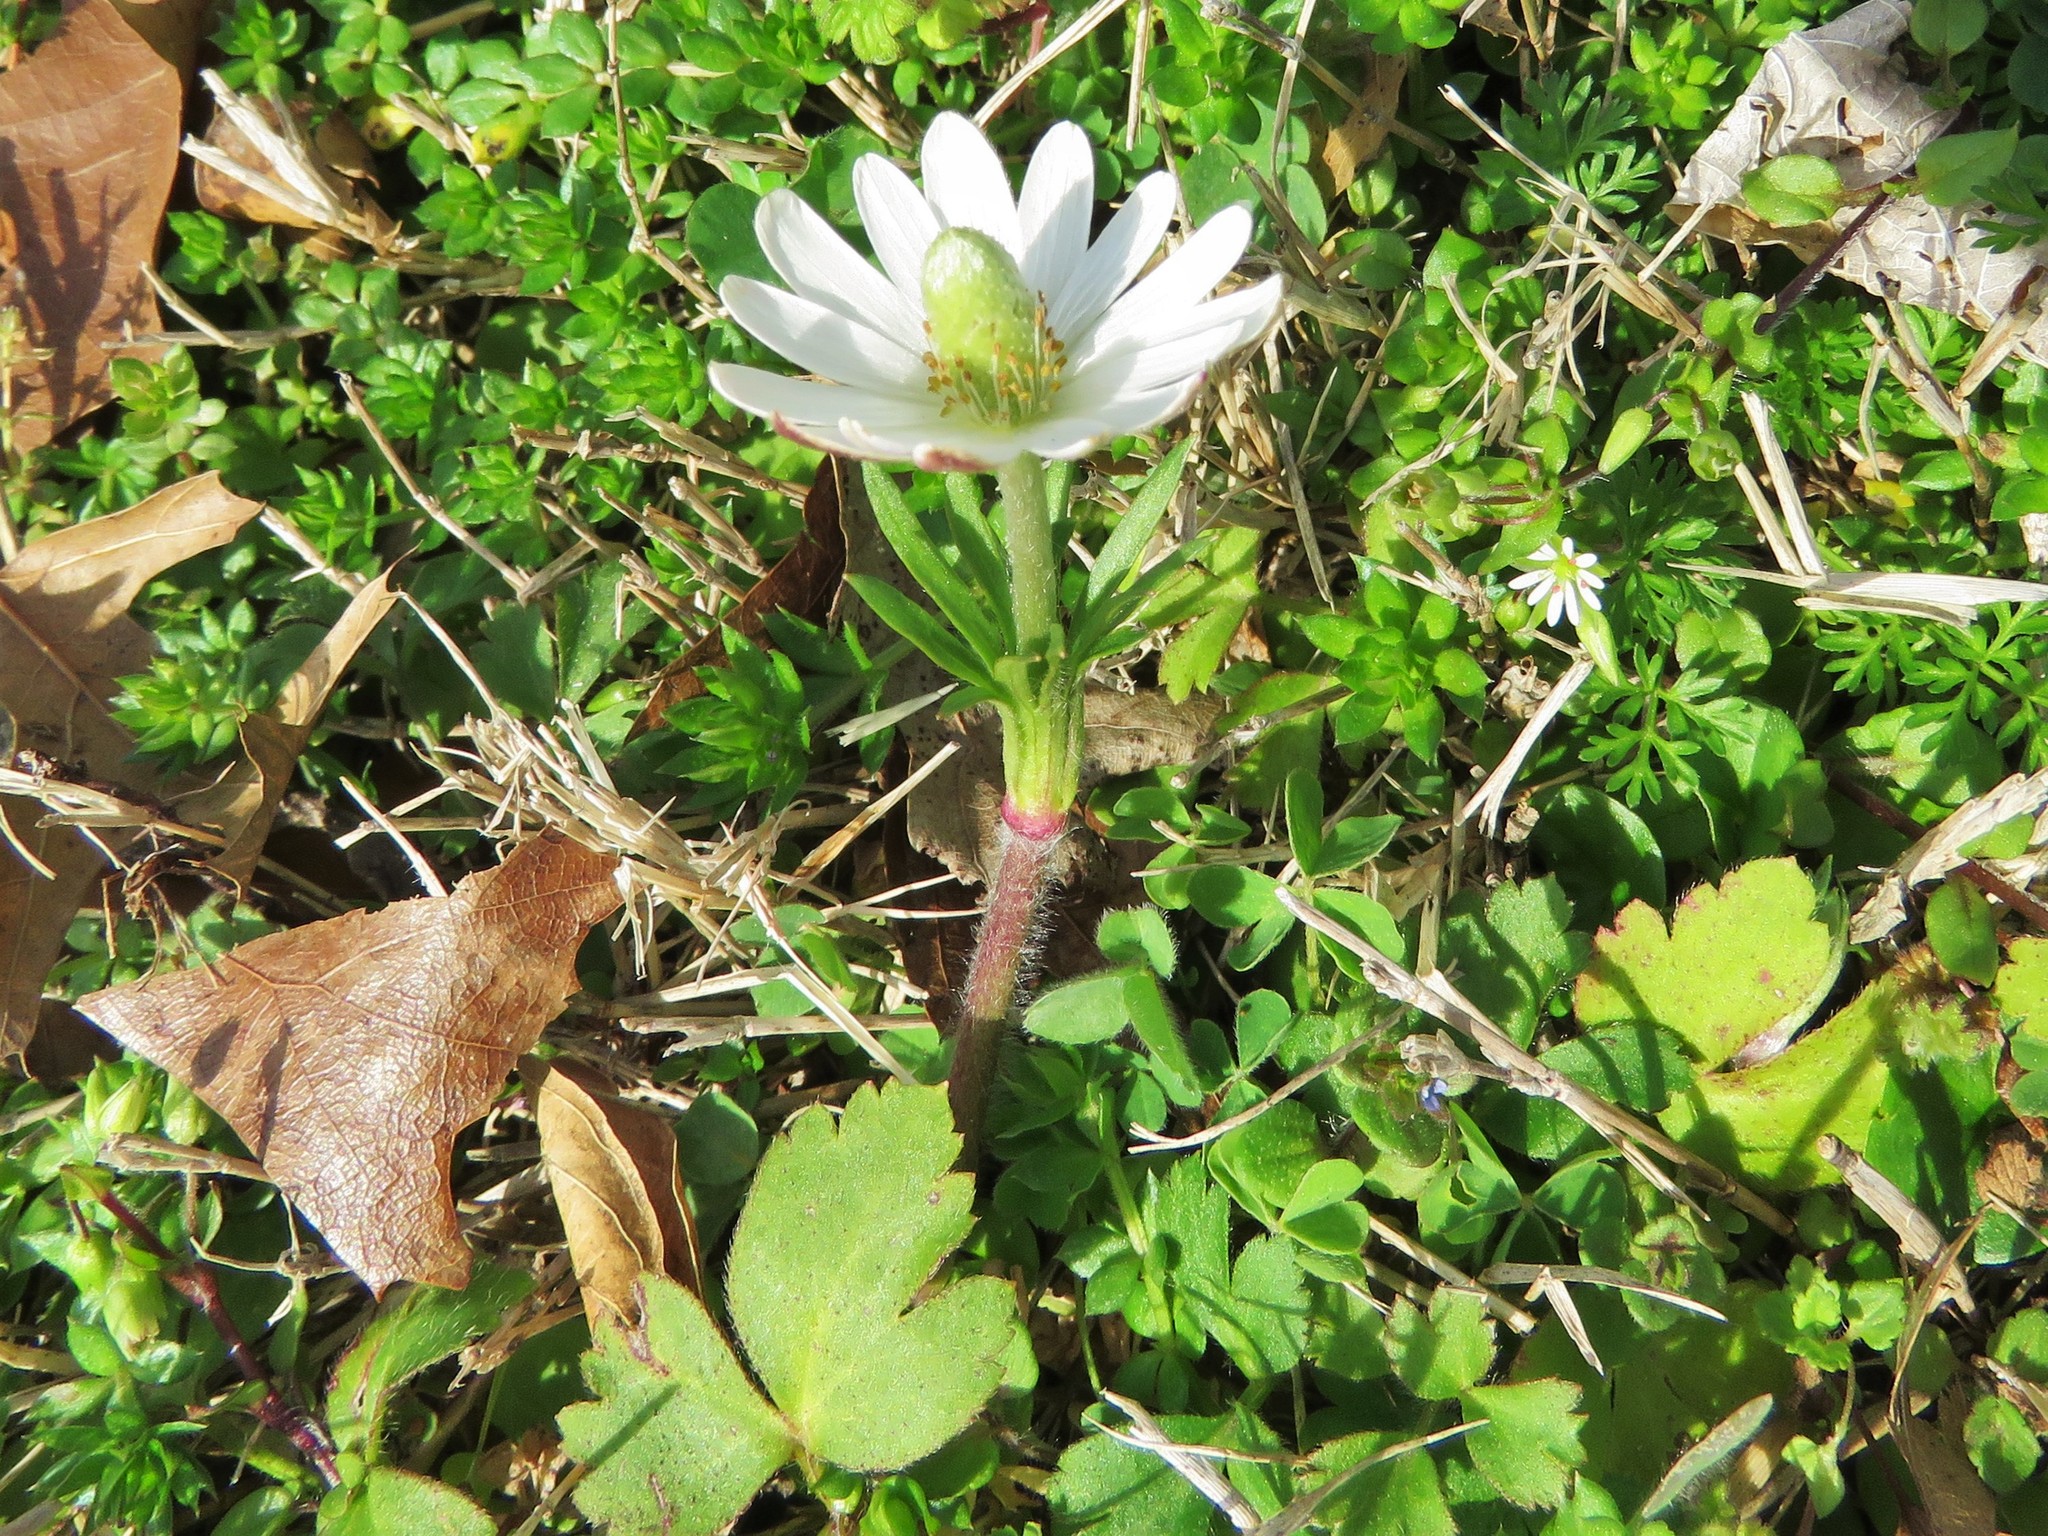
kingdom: Plantae
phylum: Tracheophyta
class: Magnoliopsida
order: Ranunculales
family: Ranunculaceae
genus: Anemone
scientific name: Anemone berlandieri
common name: Ten-petal anemone
